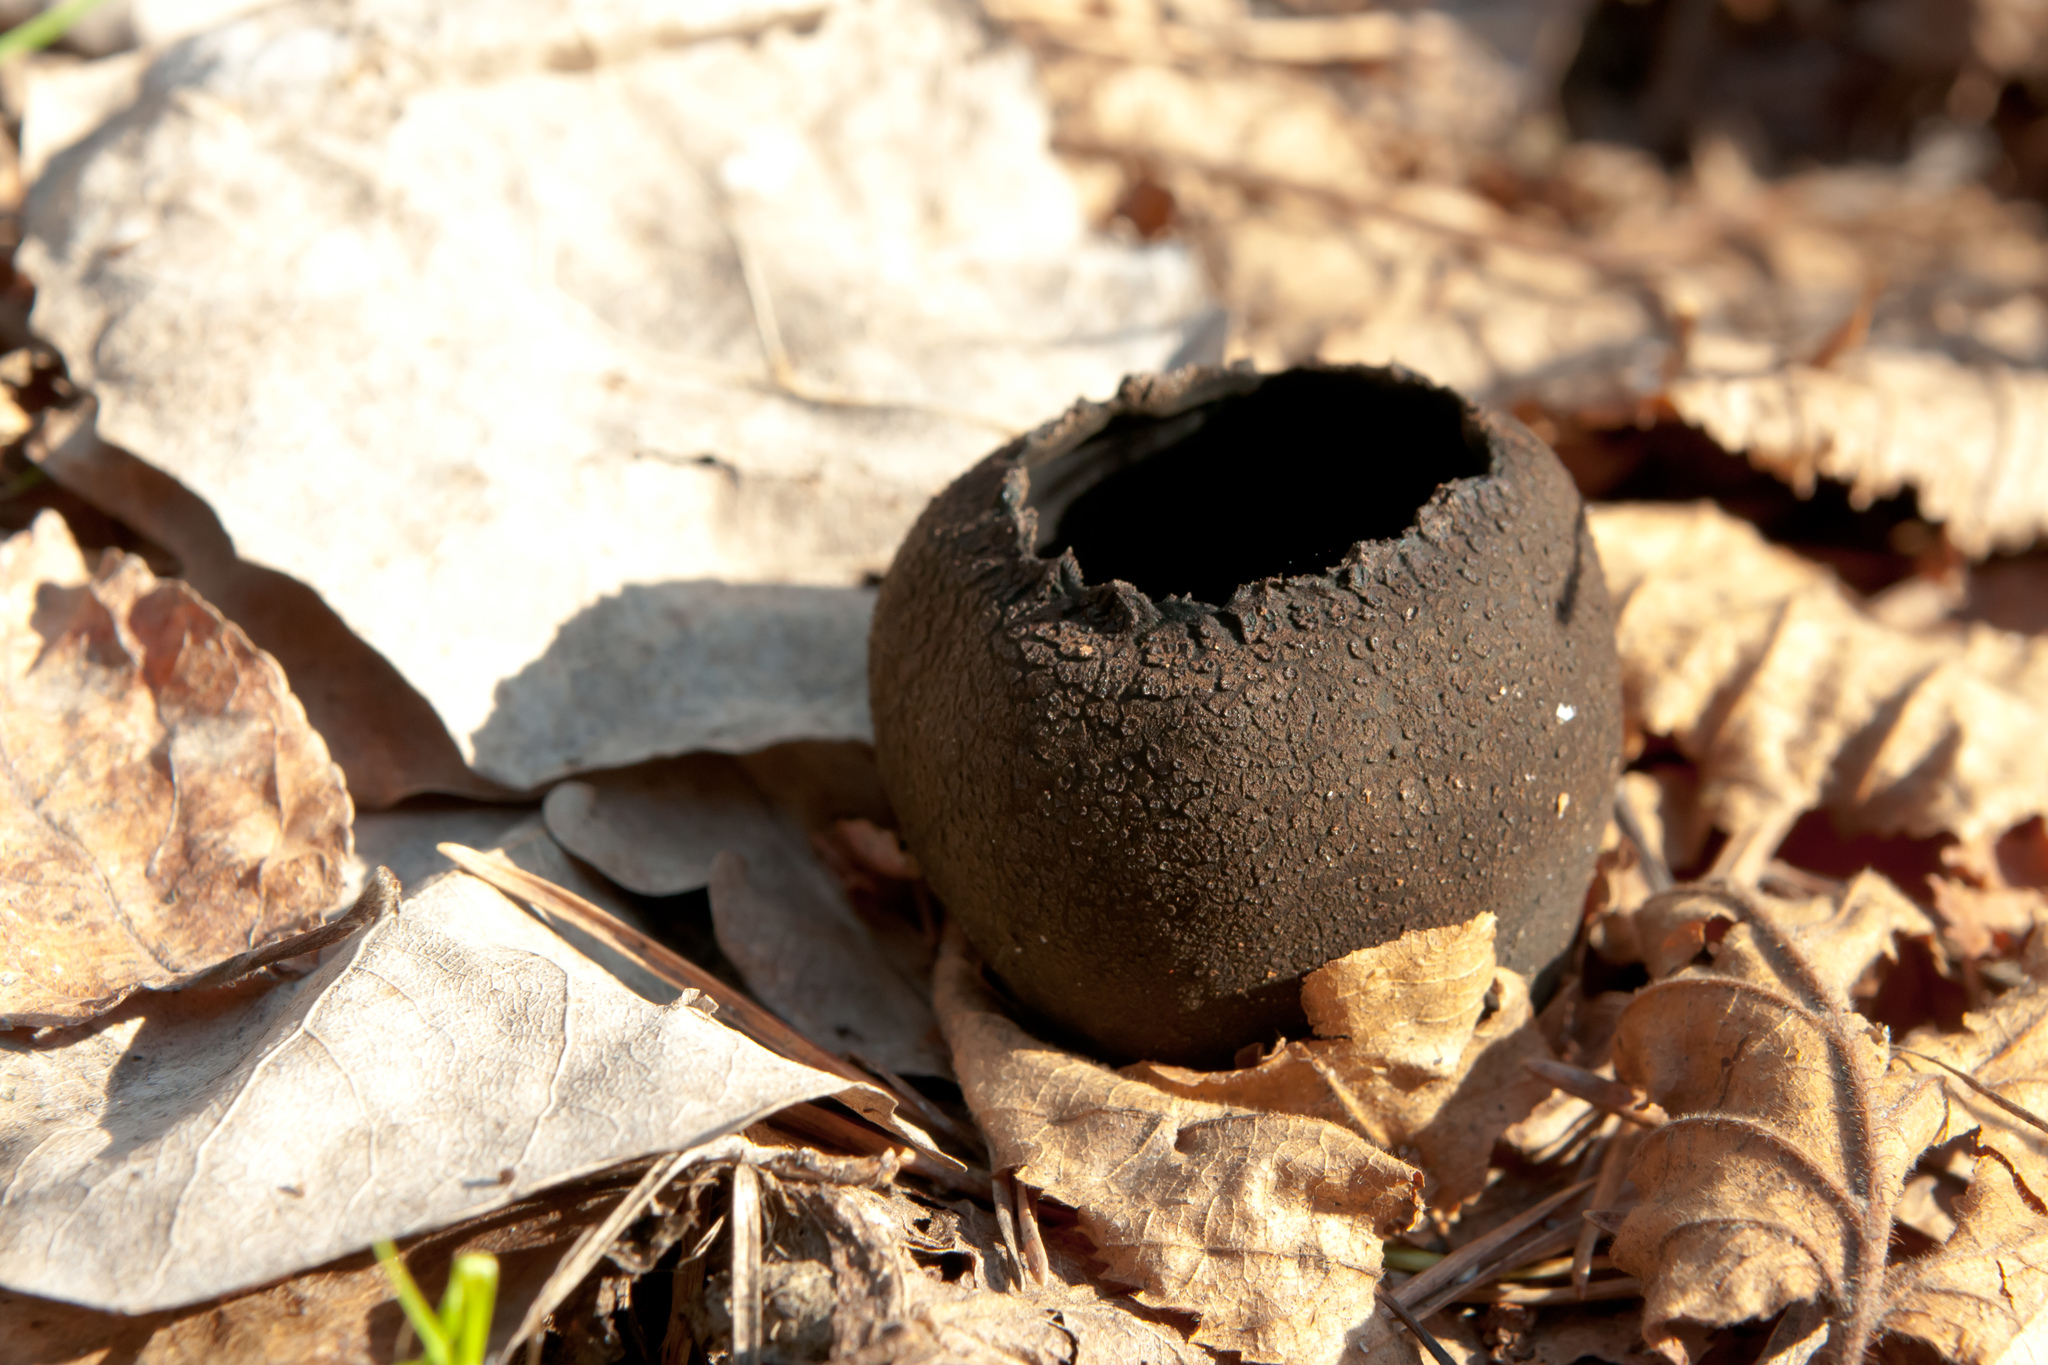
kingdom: Fungi
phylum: Ascomycota
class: Pezizomycetes
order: Pezizales
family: Sarcosomataceae
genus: Urnula
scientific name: Urnula craterium
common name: Devil's urn
